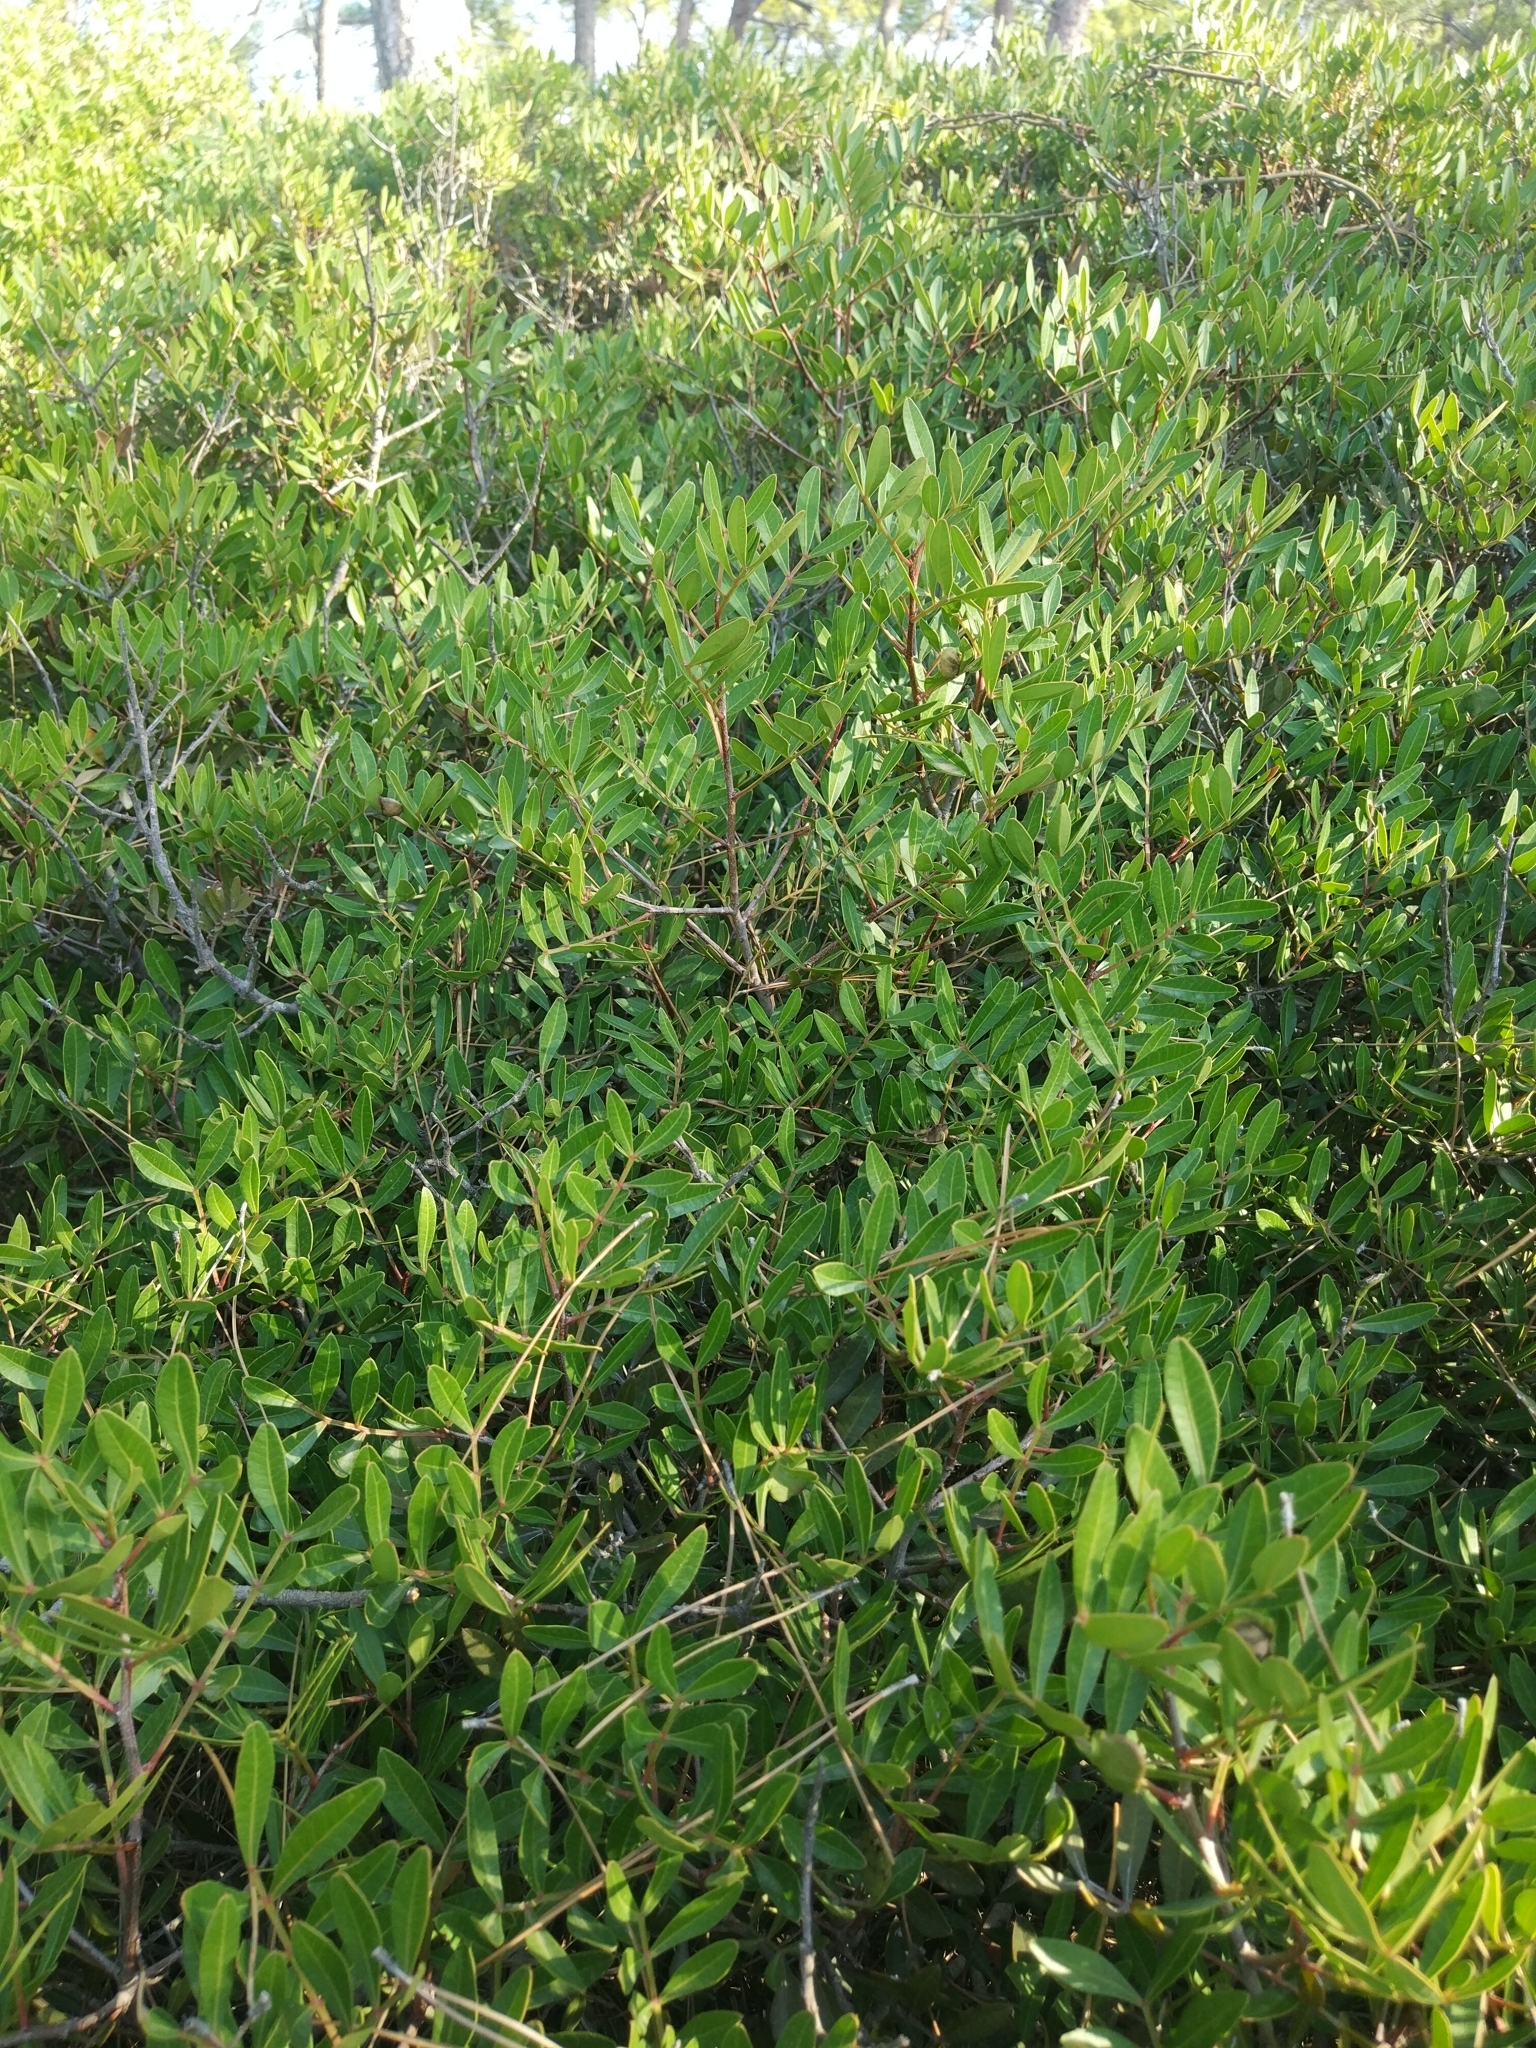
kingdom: Plantae
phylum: Tracheophyta
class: Magnoliopsida
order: Sapindales
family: Anacardiaceae
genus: Pistacia
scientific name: Pistacia lentiscus
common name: Lentisk
